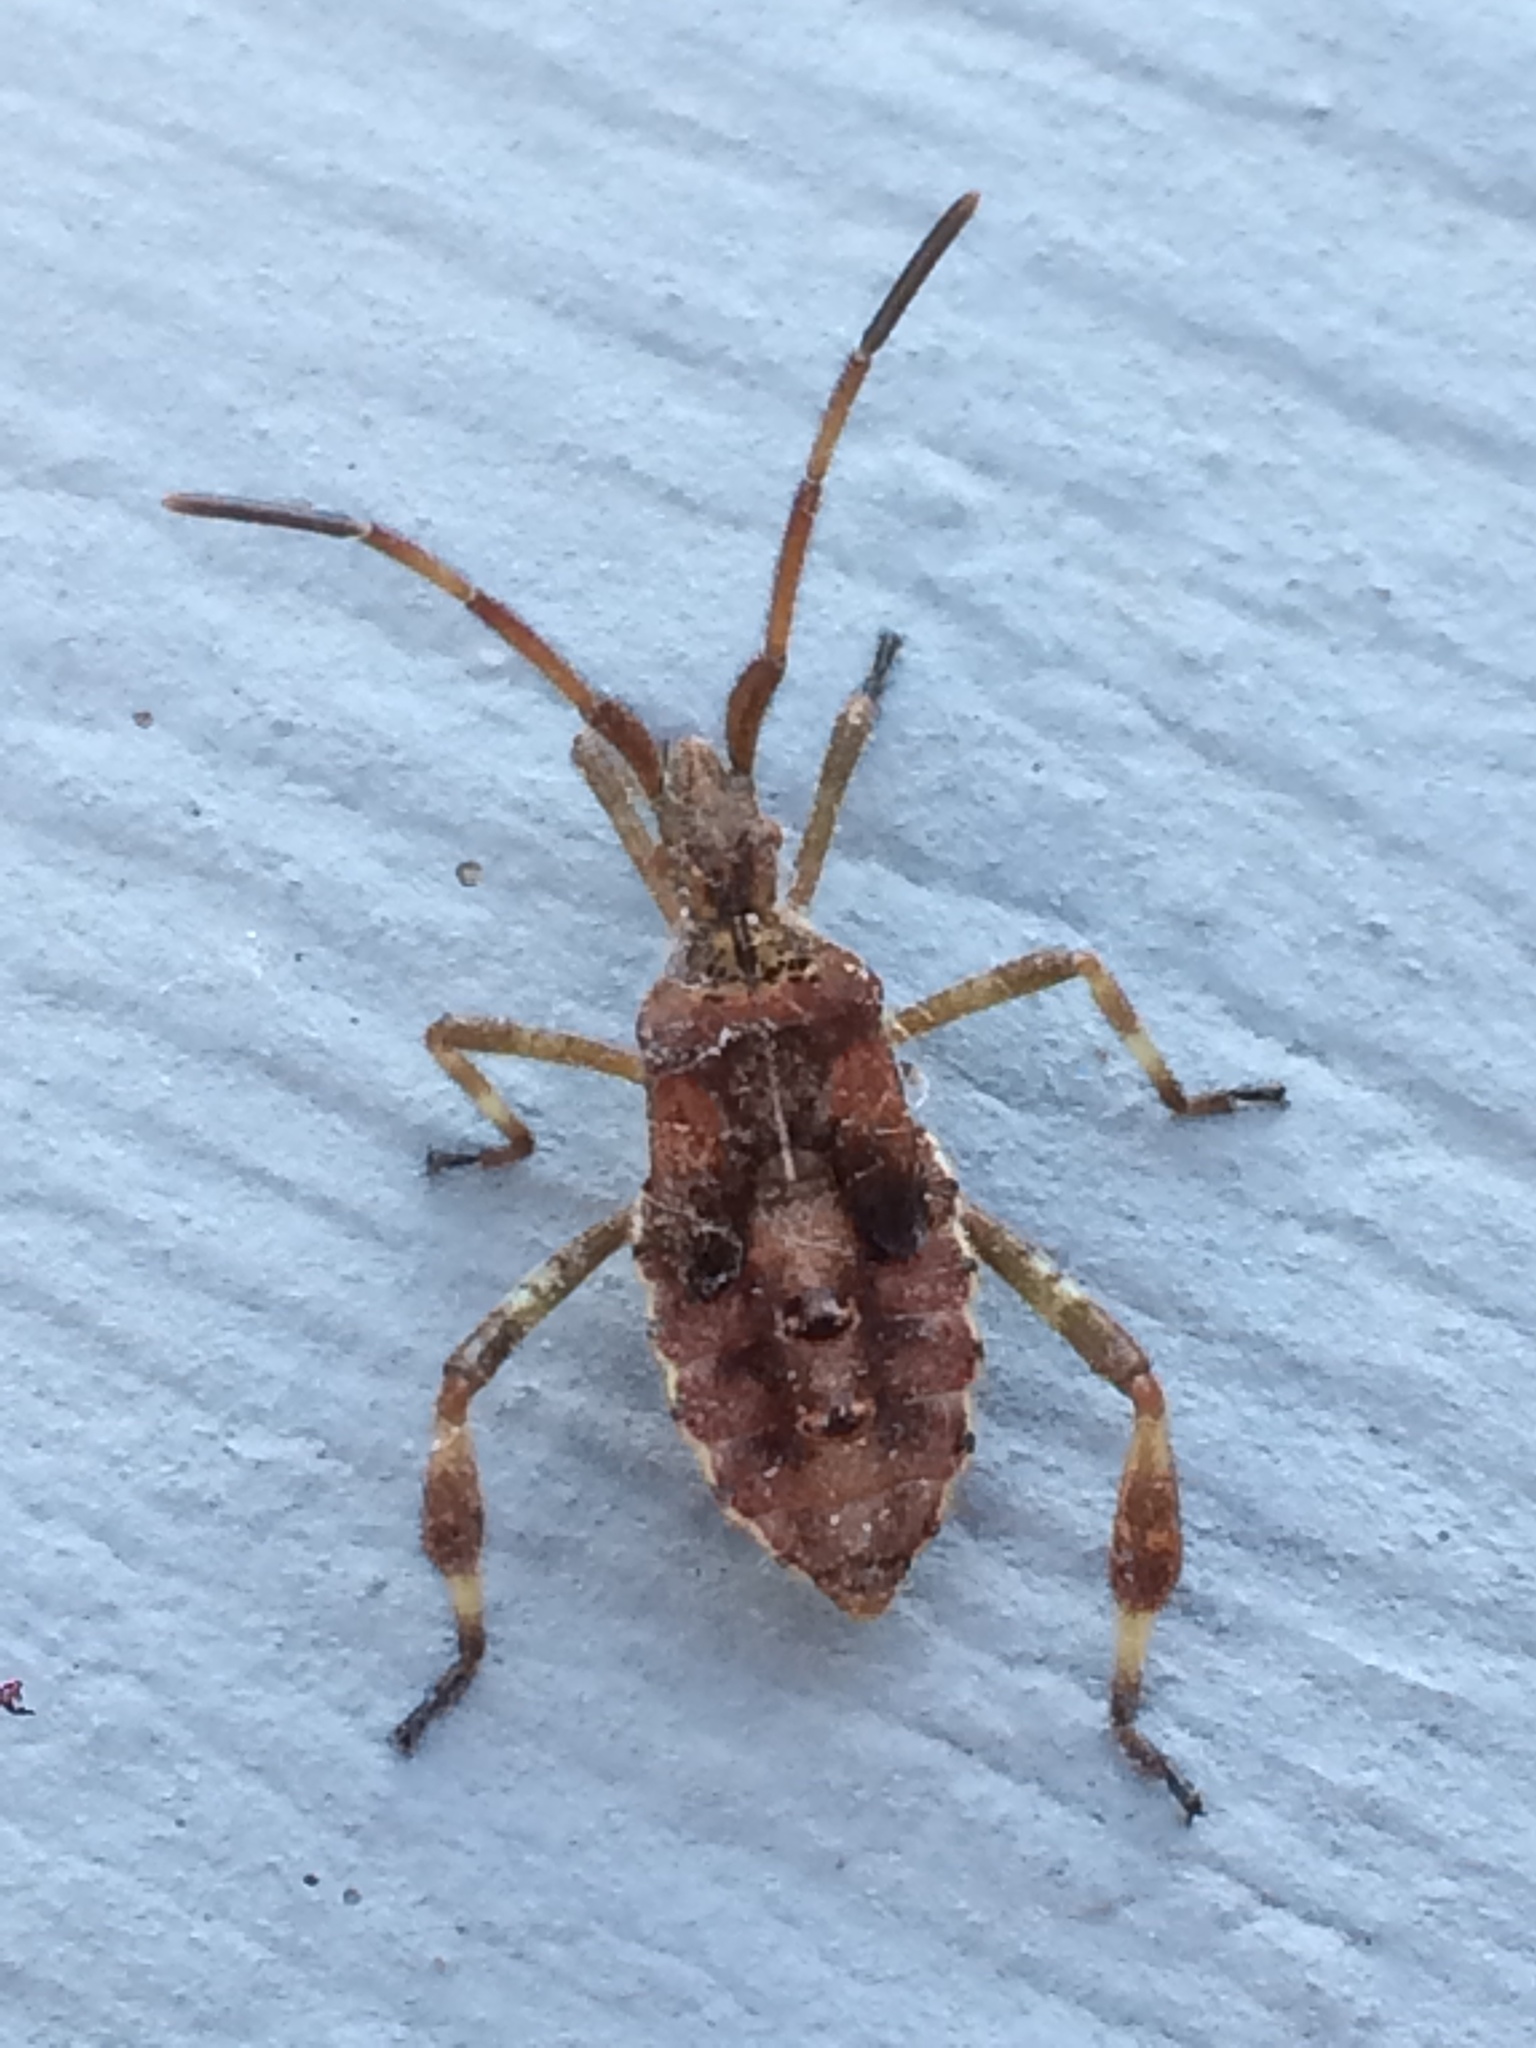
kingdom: Animalia
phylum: Arthropoda
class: Insecta
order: Hemiptera
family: Coreidae
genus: Leptoglossus
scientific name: Leptoglossus occidentalis
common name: Western conifer-seed bug
